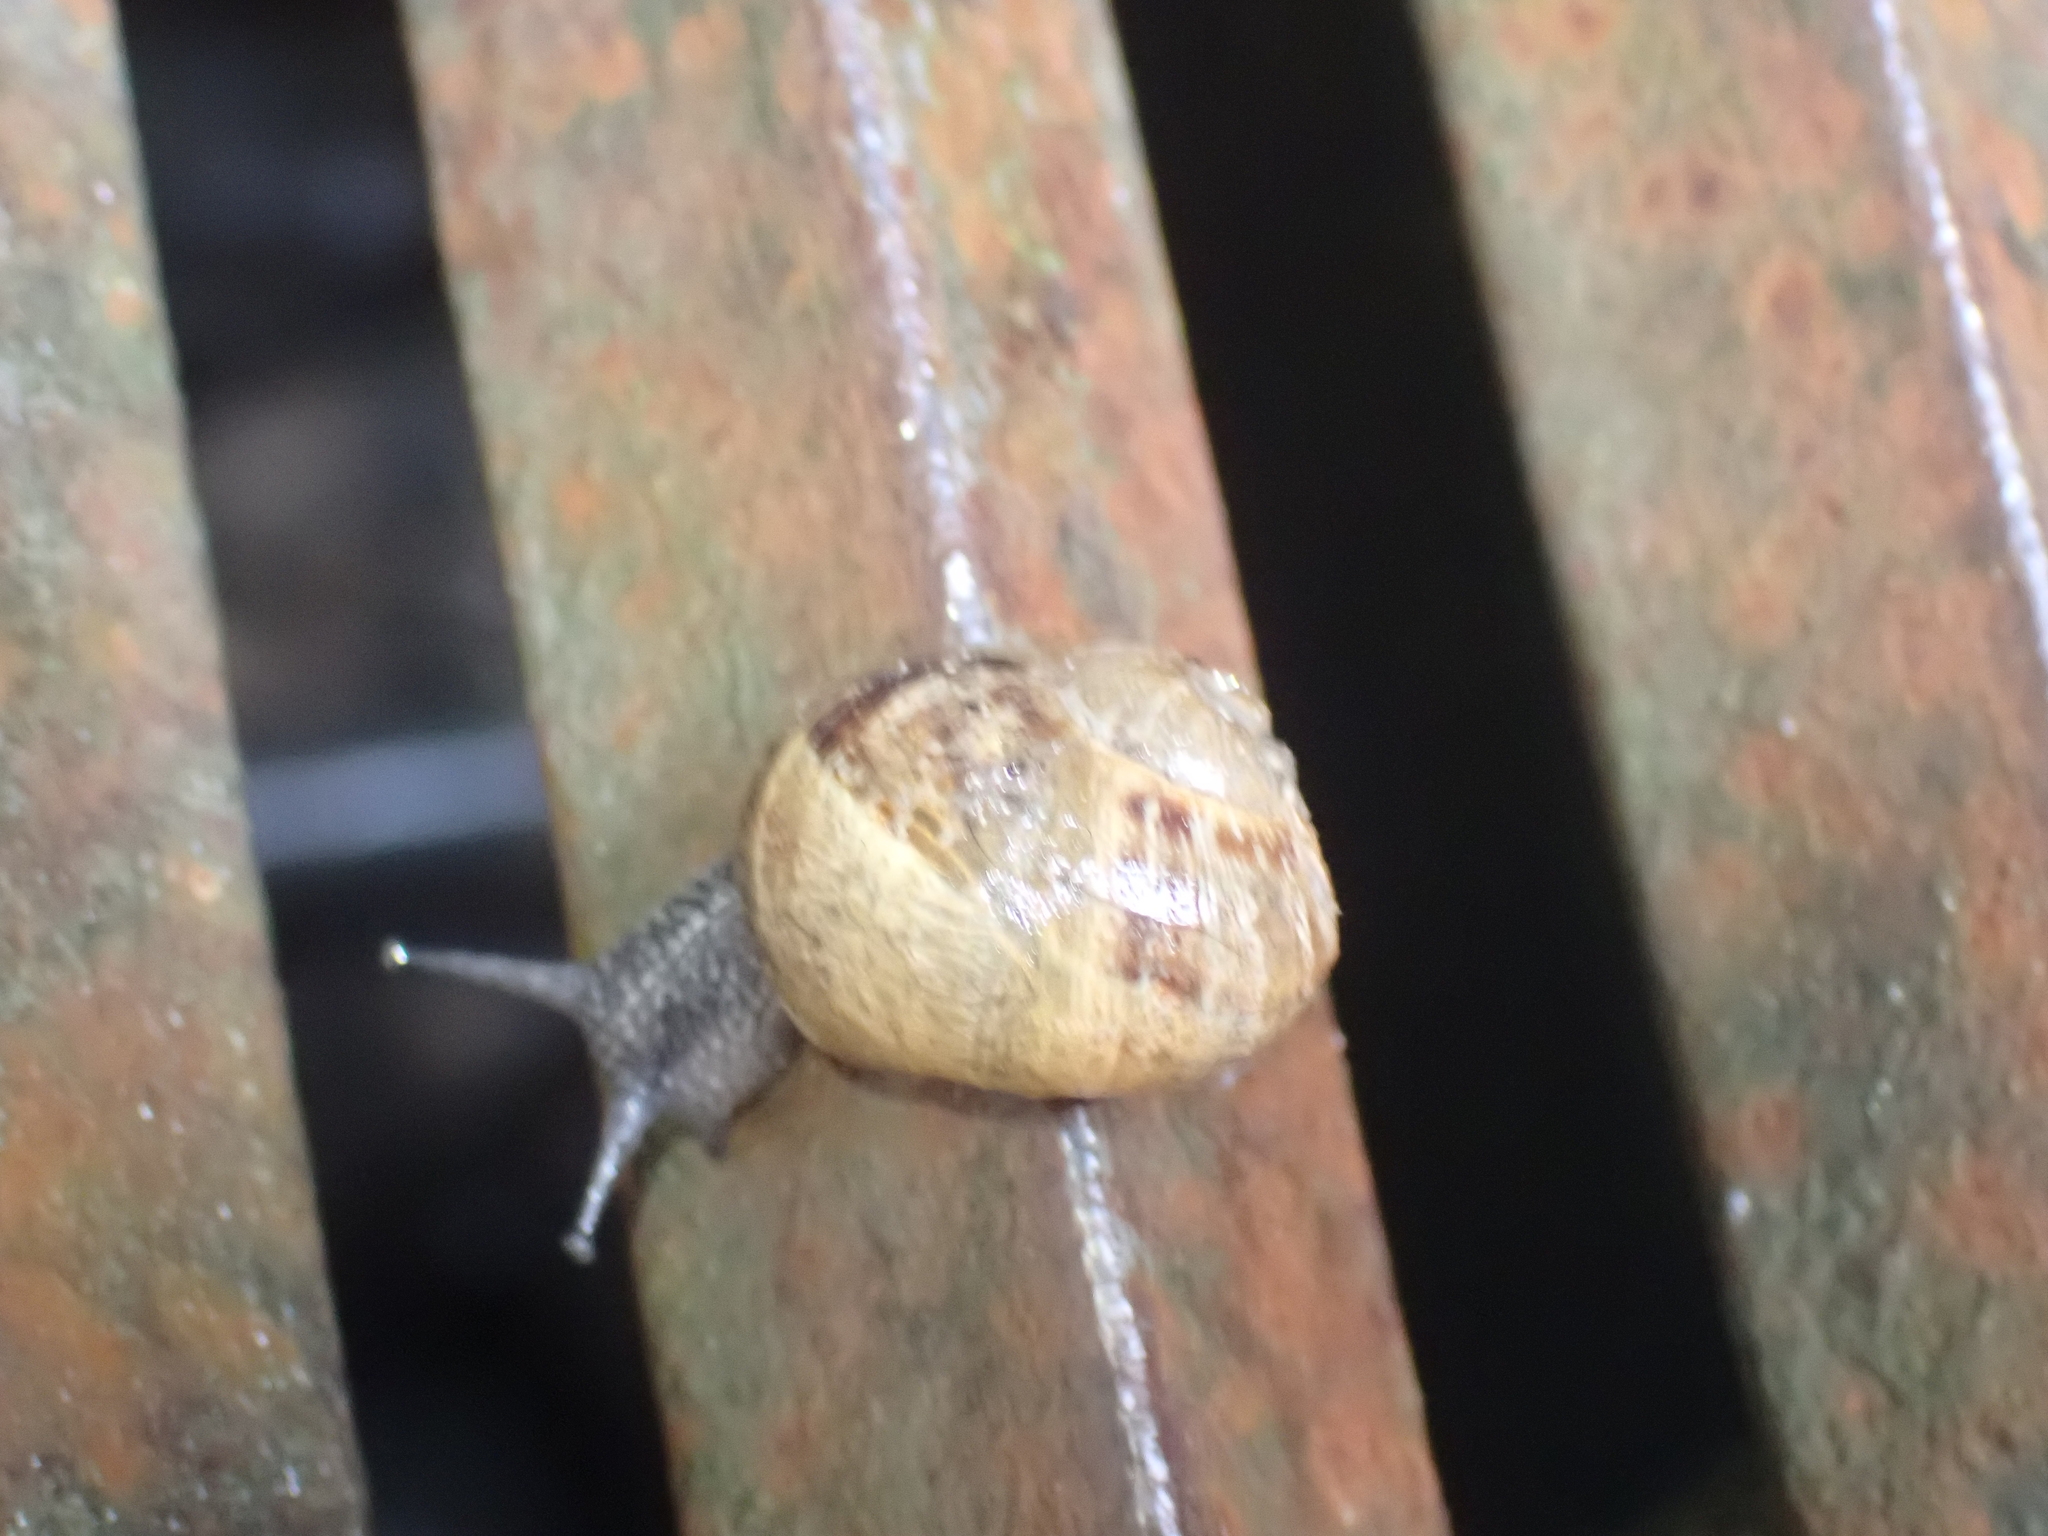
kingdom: Animalia
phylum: Mollusca
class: Gastropoda
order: Stylommatophora
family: Helicidae
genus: Cornu
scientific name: Cornu aspersum
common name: Brown garden snail
